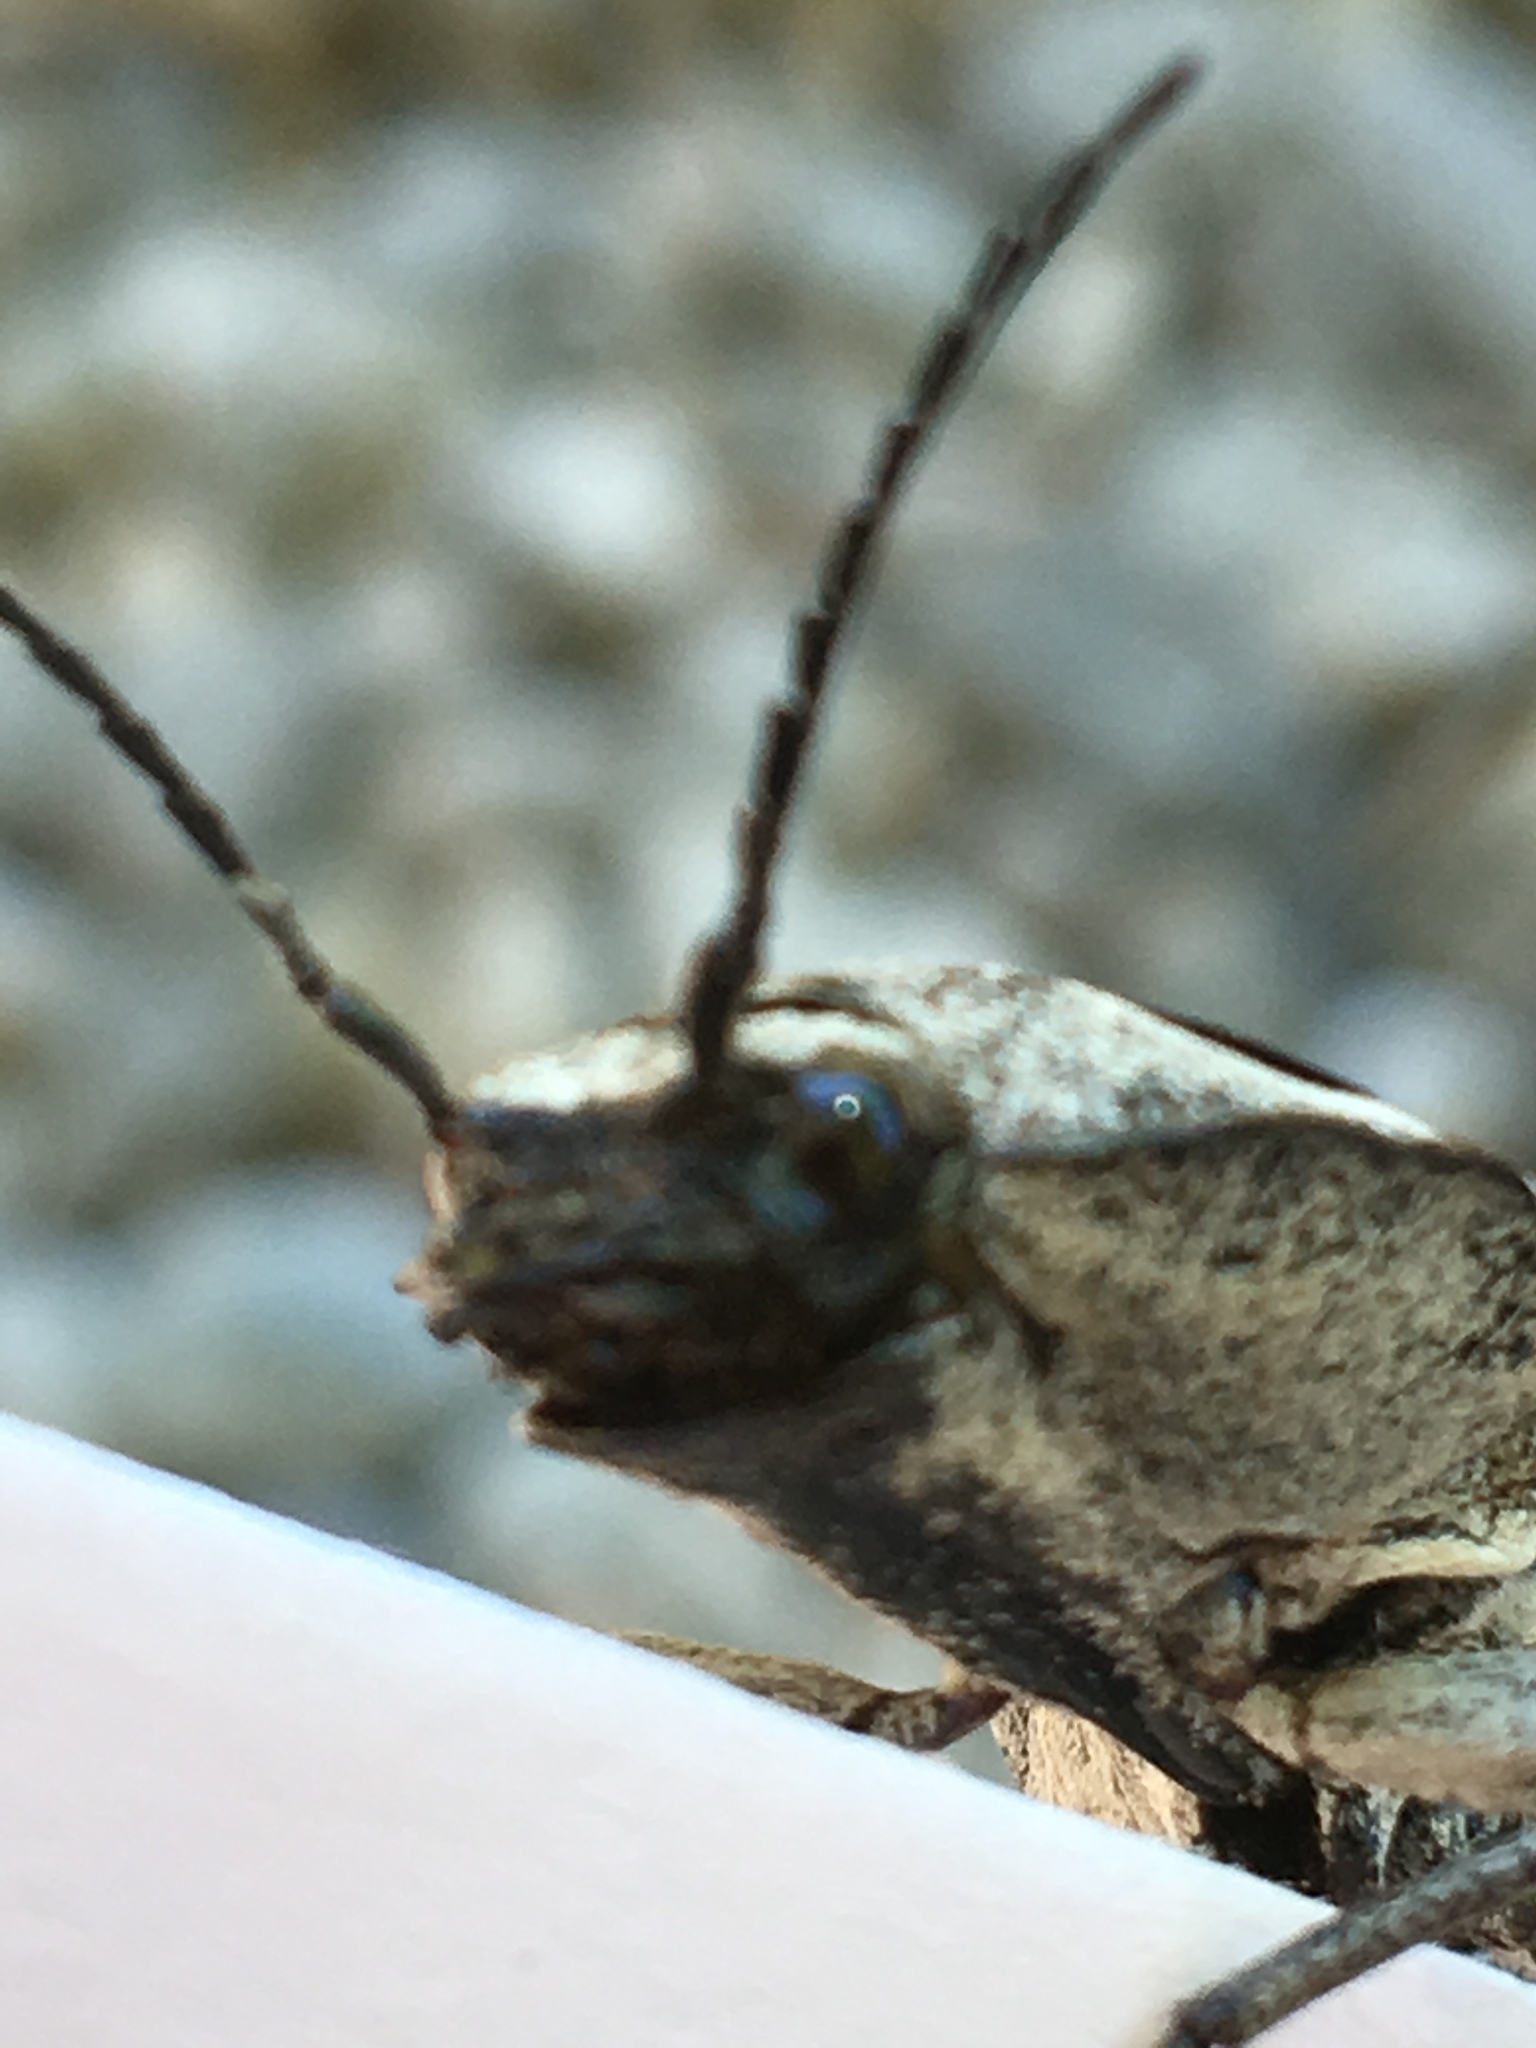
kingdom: Animalia
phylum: Arthropoda
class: Insecta
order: Coleoptera
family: Elateridae
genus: Alaus
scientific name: Alaus oculatus
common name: Eastern eyed click beetle
